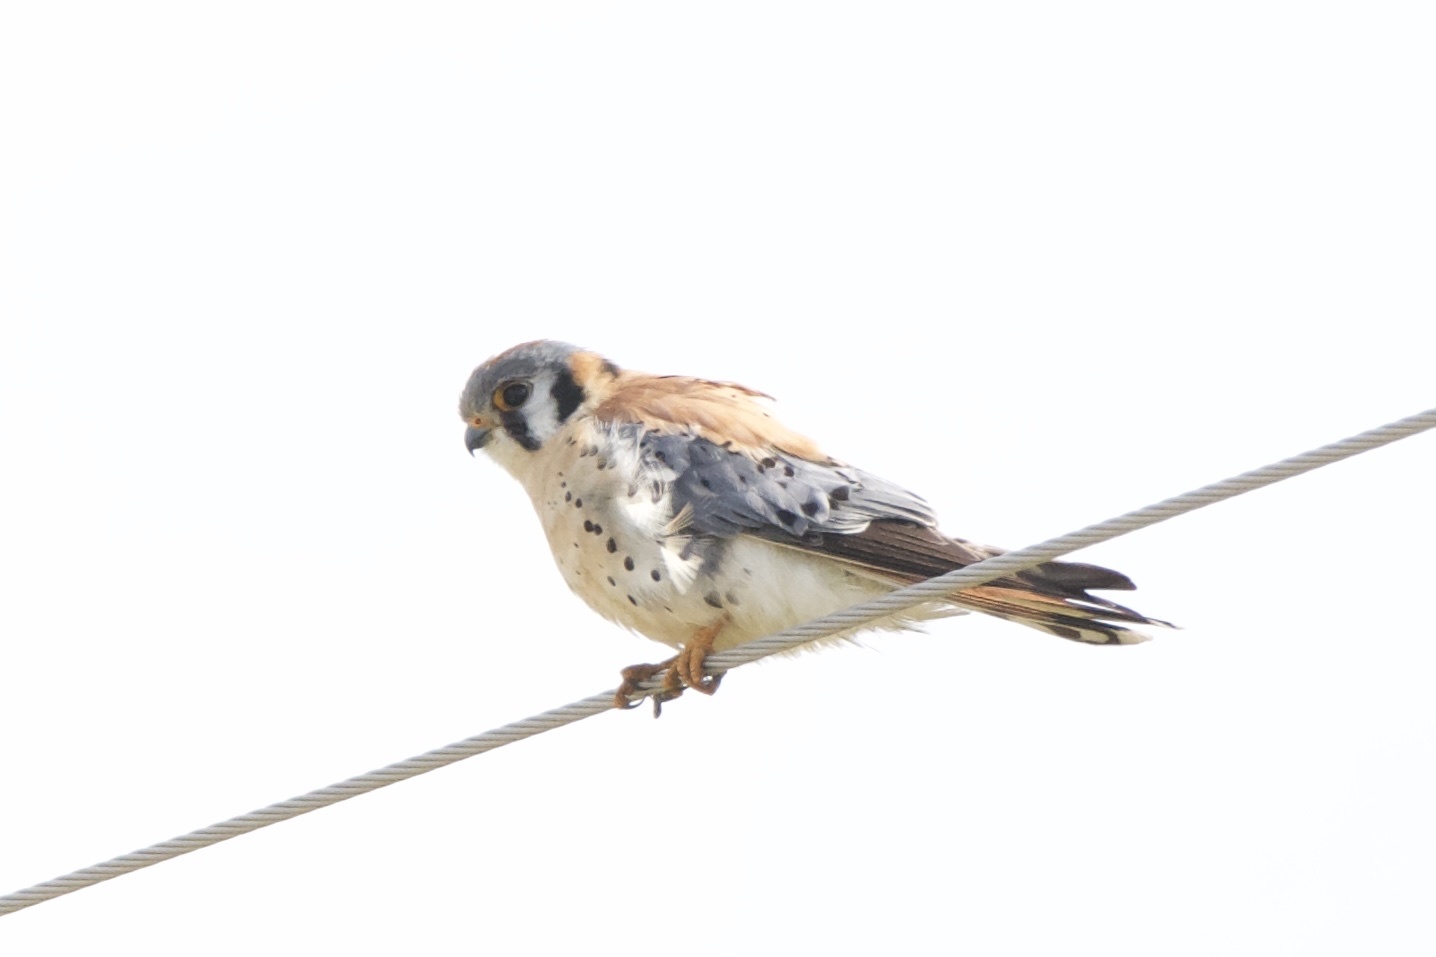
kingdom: Animalia
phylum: Chordata
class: Aves
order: Falconiformes
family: Falconidae
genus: Falco
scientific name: Falco sparverius
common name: American kestrel
